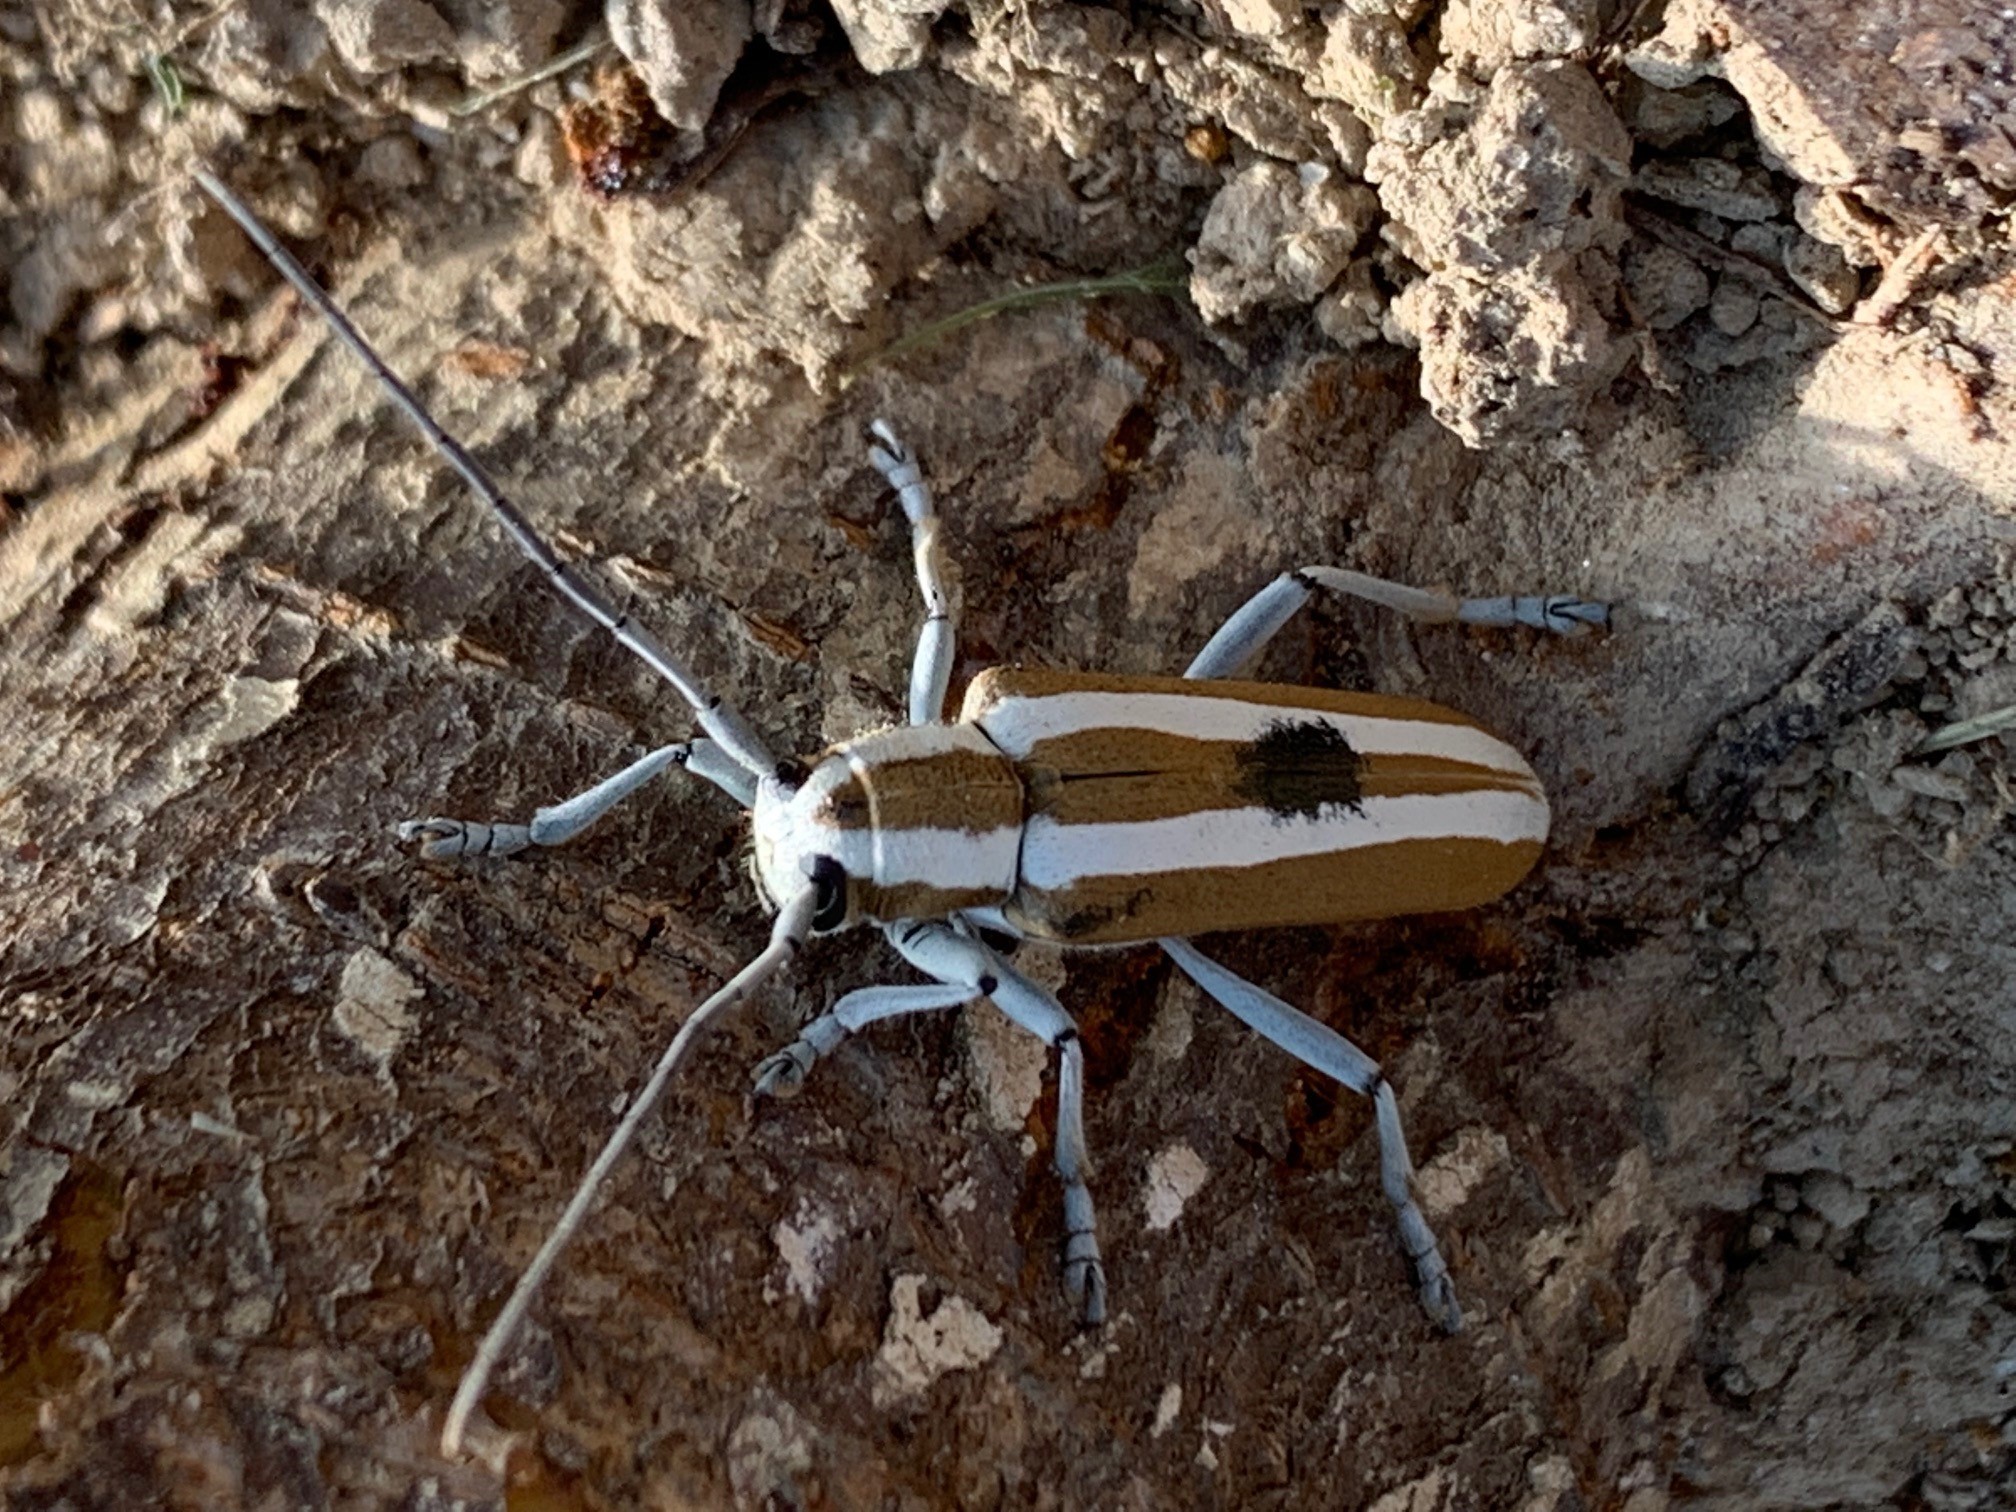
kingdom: Animalia
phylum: Arthropoda
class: Insecta
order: Coleoptera
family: Cerambycidae
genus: Saperda
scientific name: Saperda candida
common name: Round-headed borer
